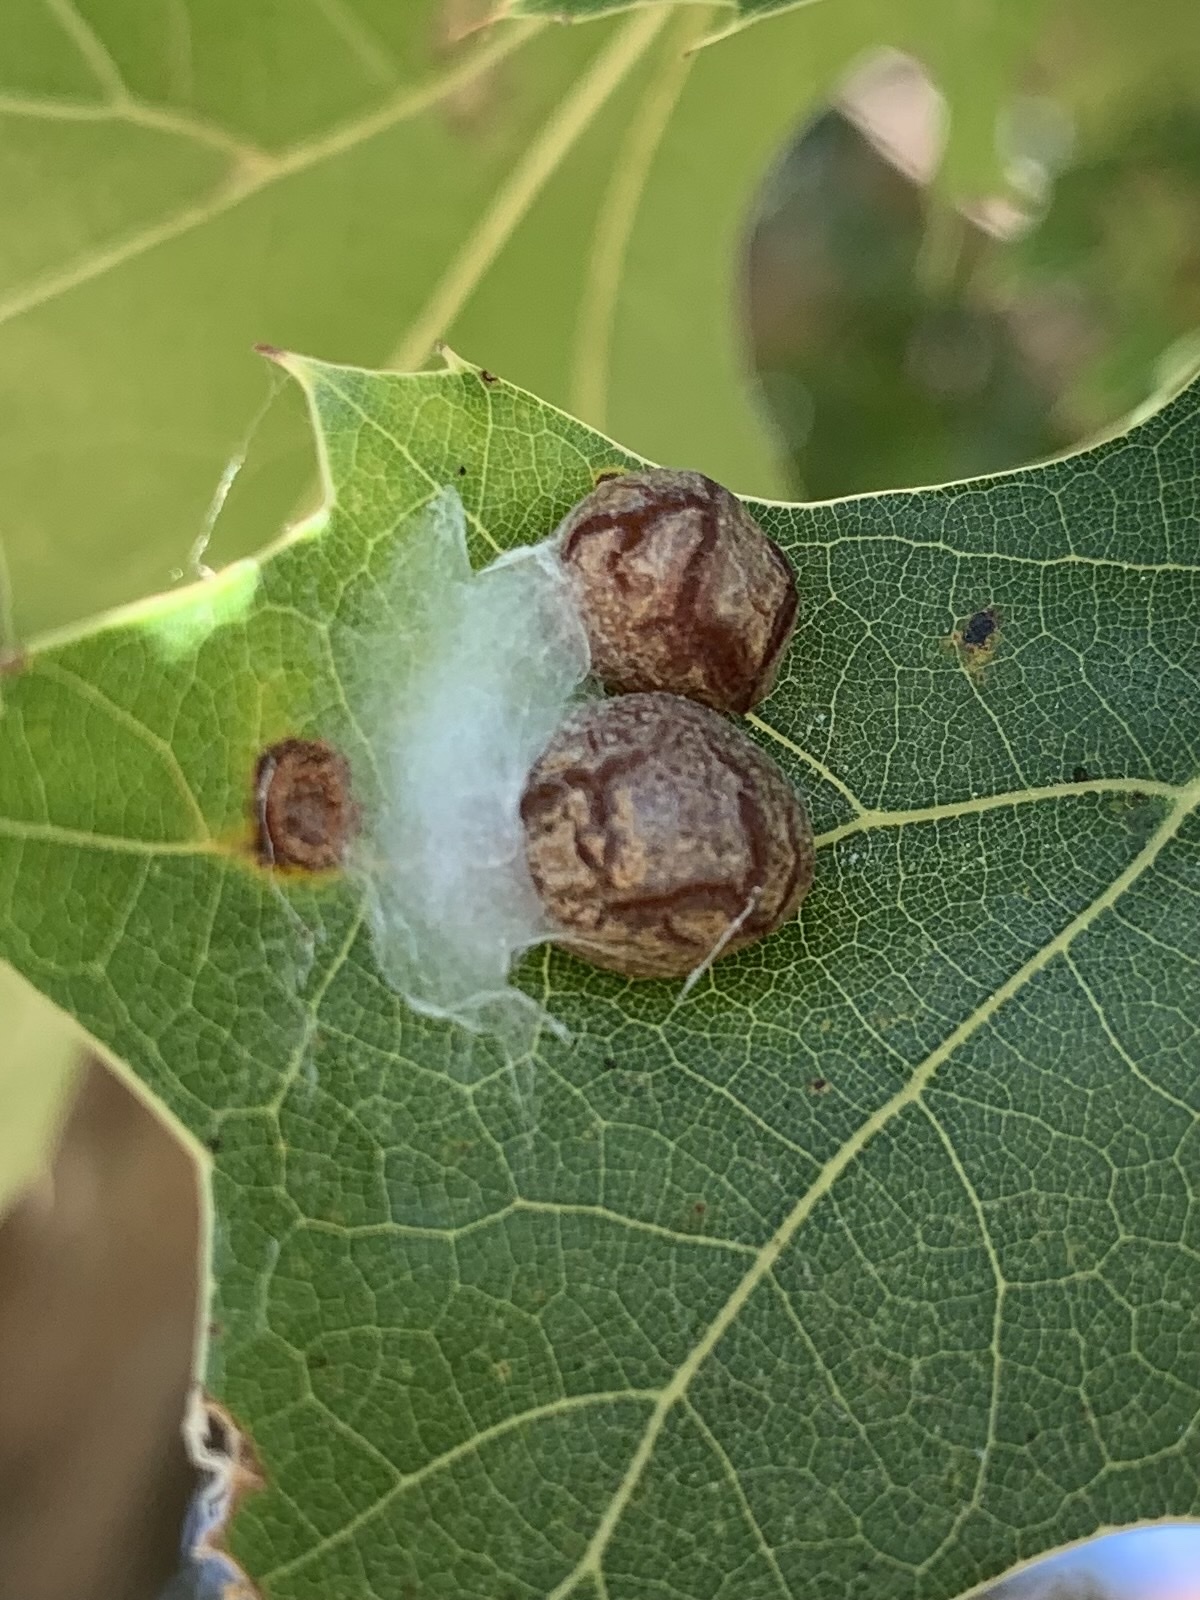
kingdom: Animalia
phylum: Arthropoda
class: Insecta
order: Diptera
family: Cecidomyiidae
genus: Polystepha
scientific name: Polystepha pilulae
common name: Oak leaf gall midge
